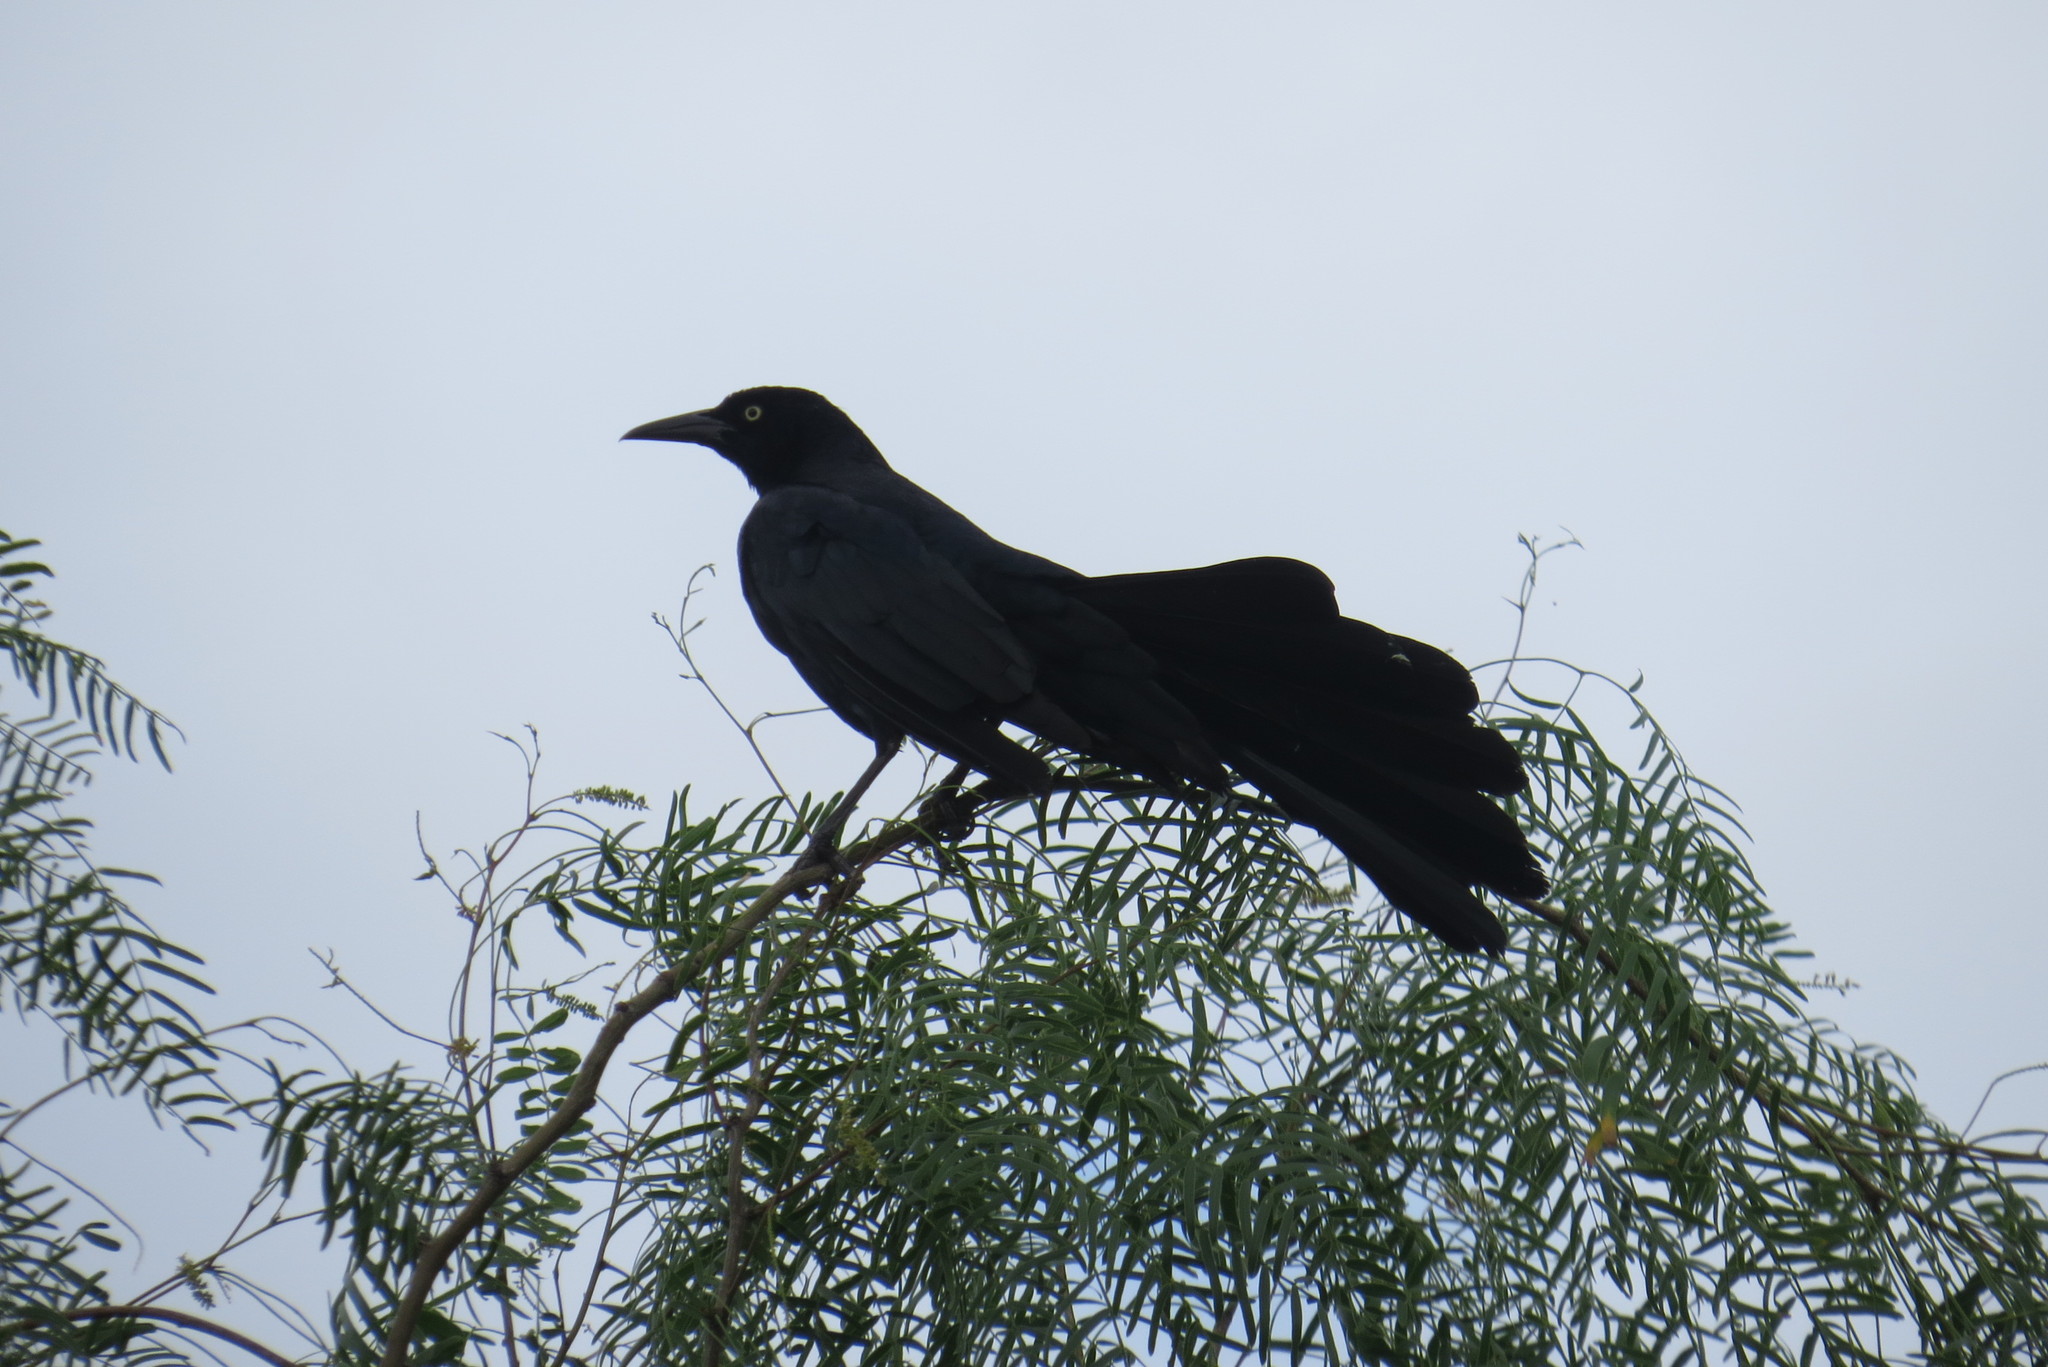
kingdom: Animalia
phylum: Chordata
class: Aves
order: Passeriformes
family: Icteridae
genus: Quiscalus
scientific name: Quiscalus mexicanus
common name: Great-tailed grackle
